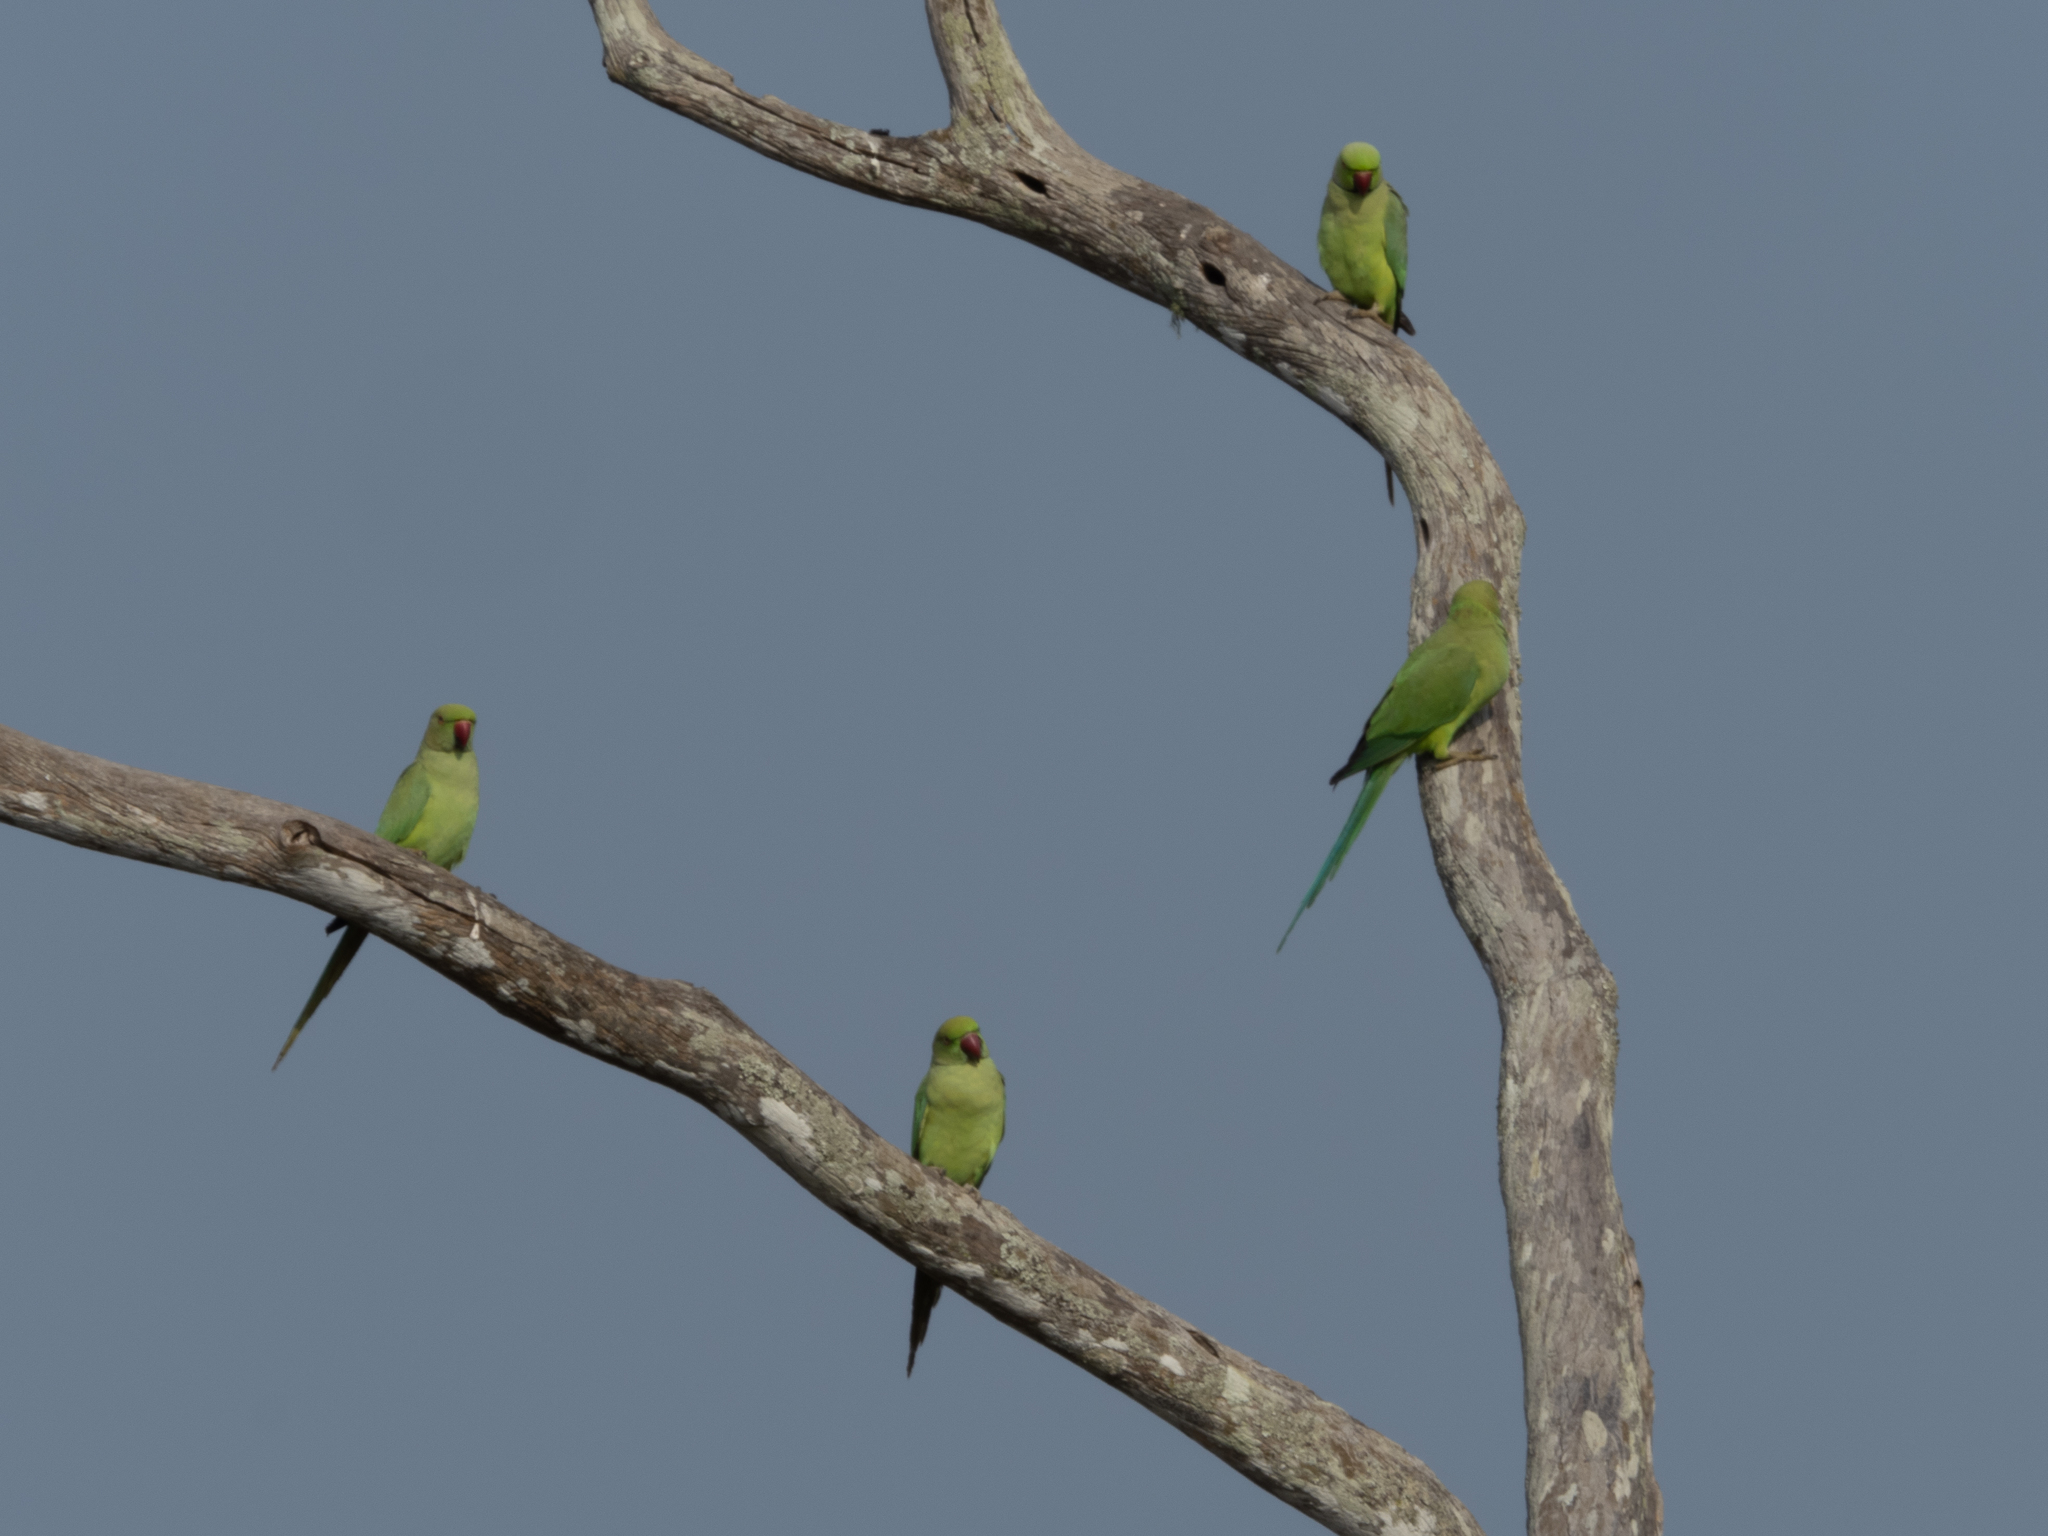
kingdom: Animalia
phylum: Chordata
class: Aves
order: Psittaciformes
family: Psittacidae
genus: Psittacula
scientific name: Psittacula krameri
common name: Rose-ringed parakeet
